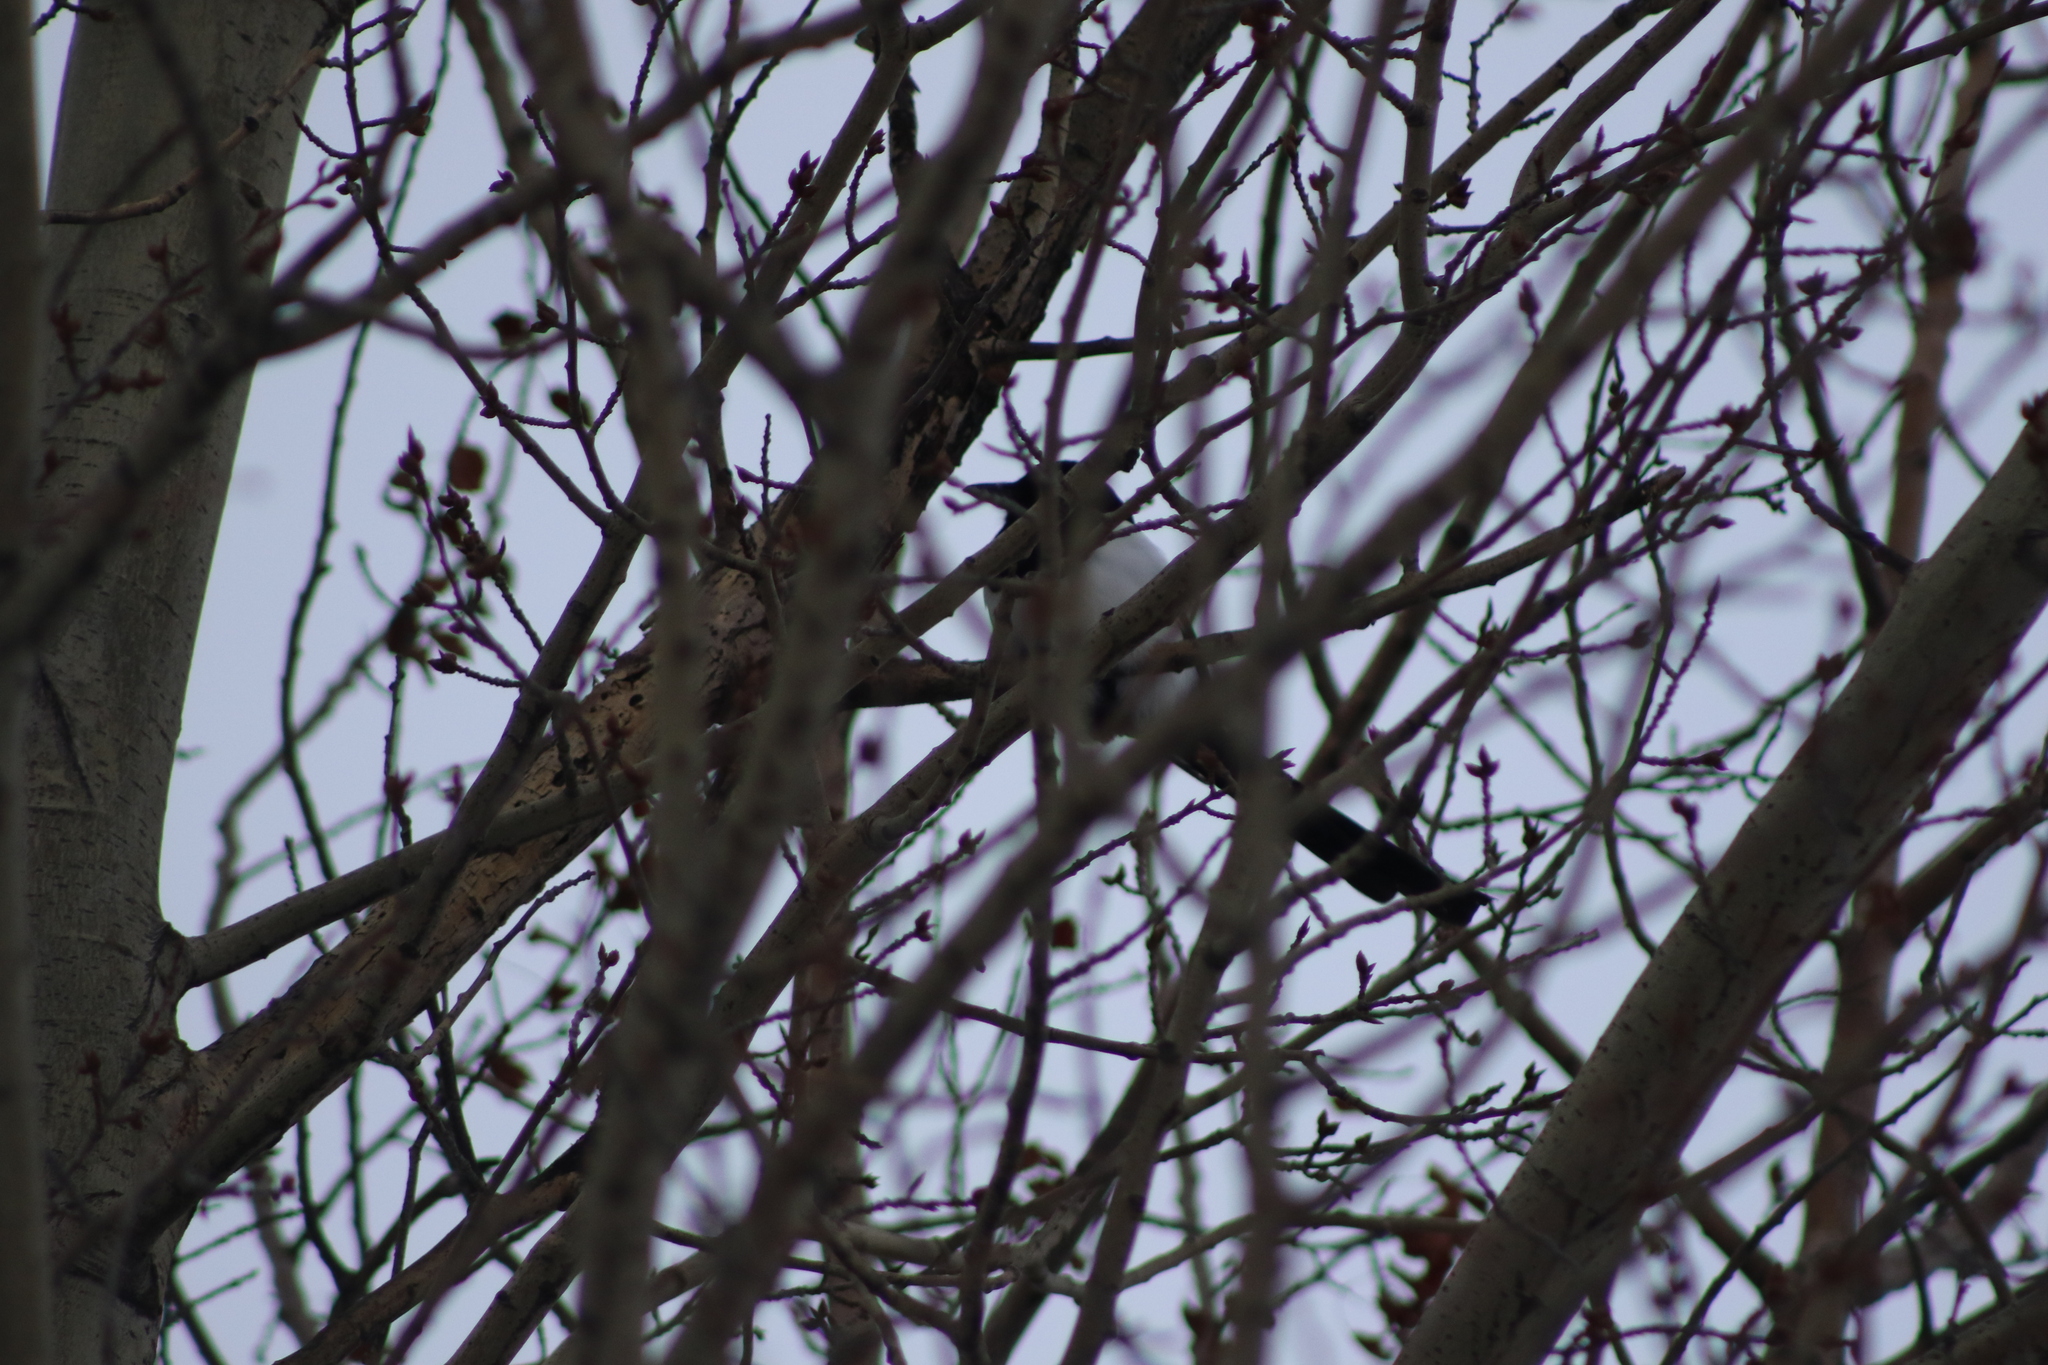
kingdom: Animalia
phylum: Chordata
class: Aves
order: Passeriformes
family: Corvidae
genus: Pica
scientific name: Pica pica
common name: Eurasian magpie
